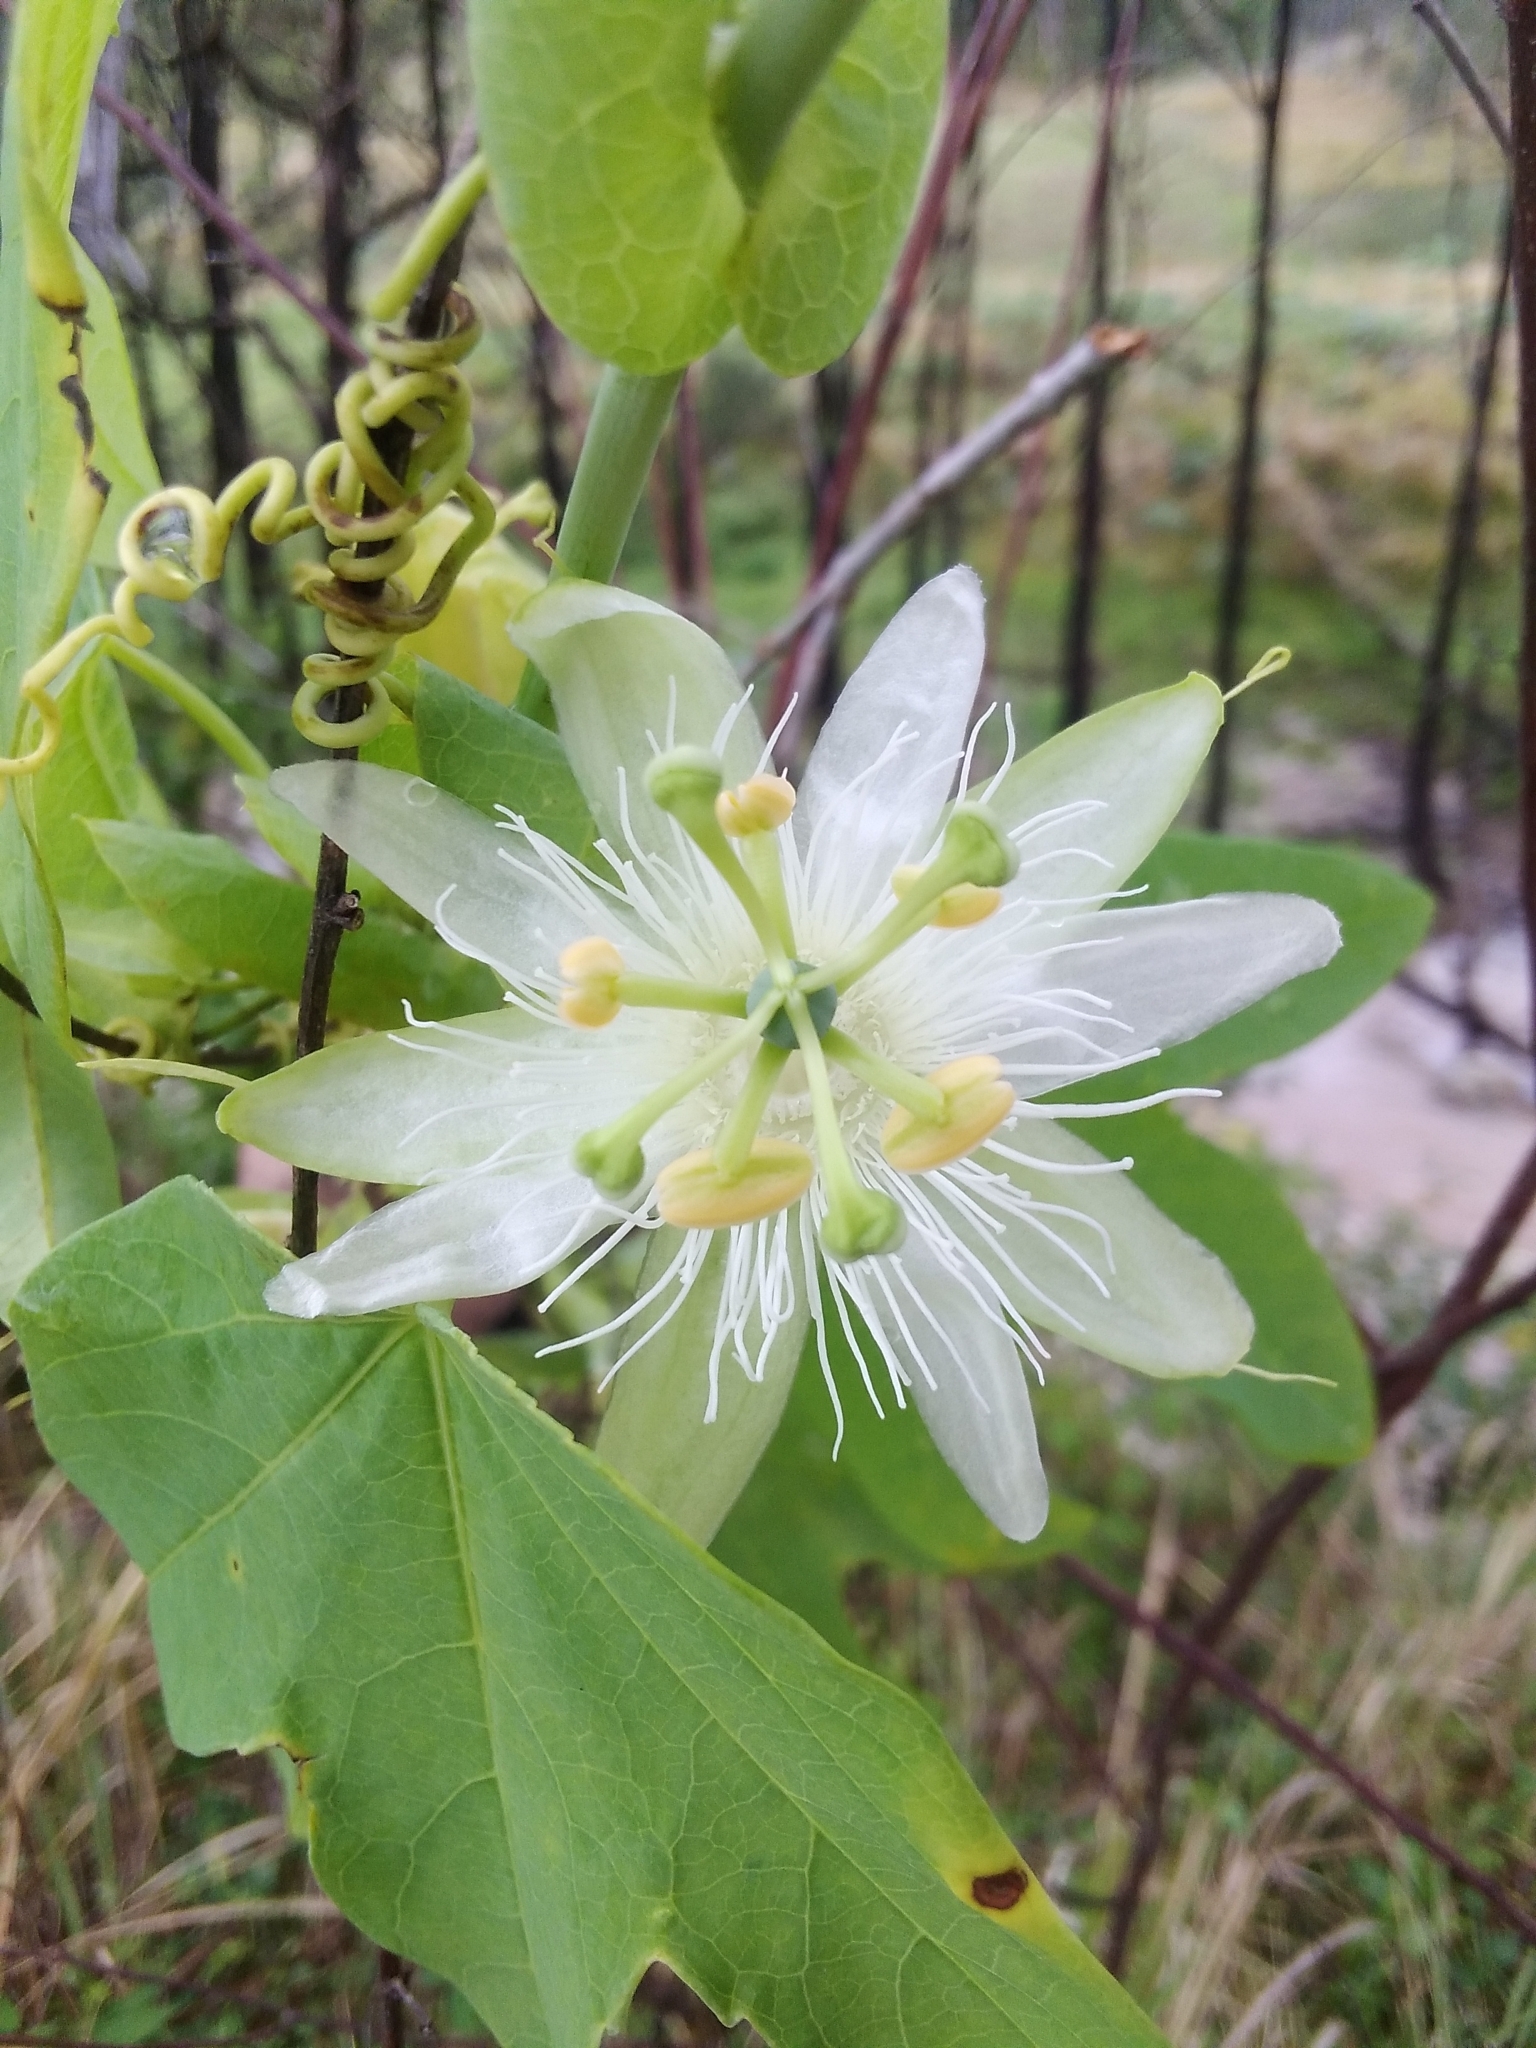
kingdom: Plantae
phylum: Tracheophyta
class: Magnoliopsida
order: Malpighiales
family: Passifloraceae
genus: Passiflora
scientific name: Passiflora subpeltata
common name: White passionflower
